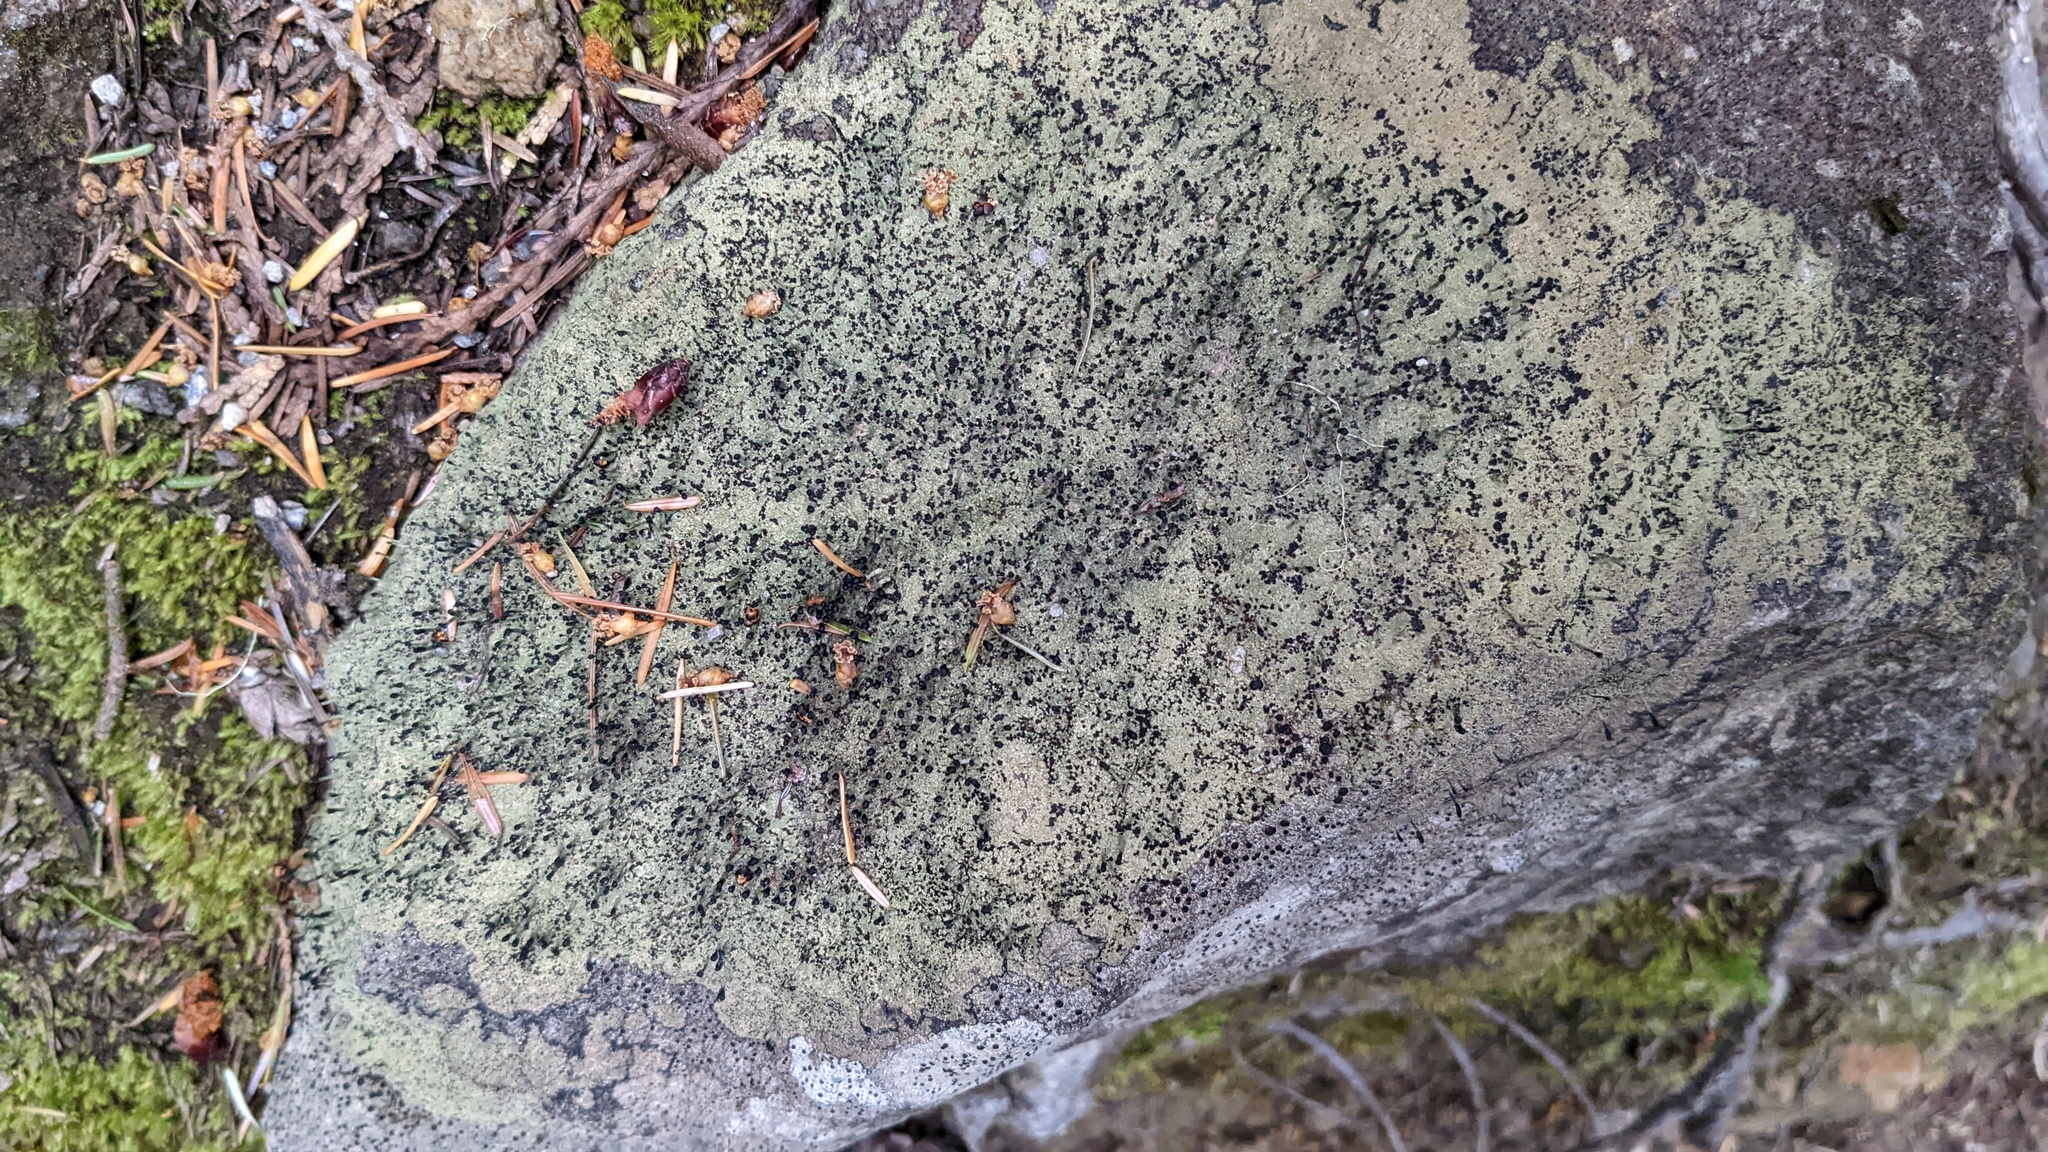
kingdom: Fungi
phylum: Ascomycota
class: Lecanoromycetes
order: Lecanorales
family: Cladoniaceae
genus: Pilophorus
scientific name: Pilophorus clavatus
